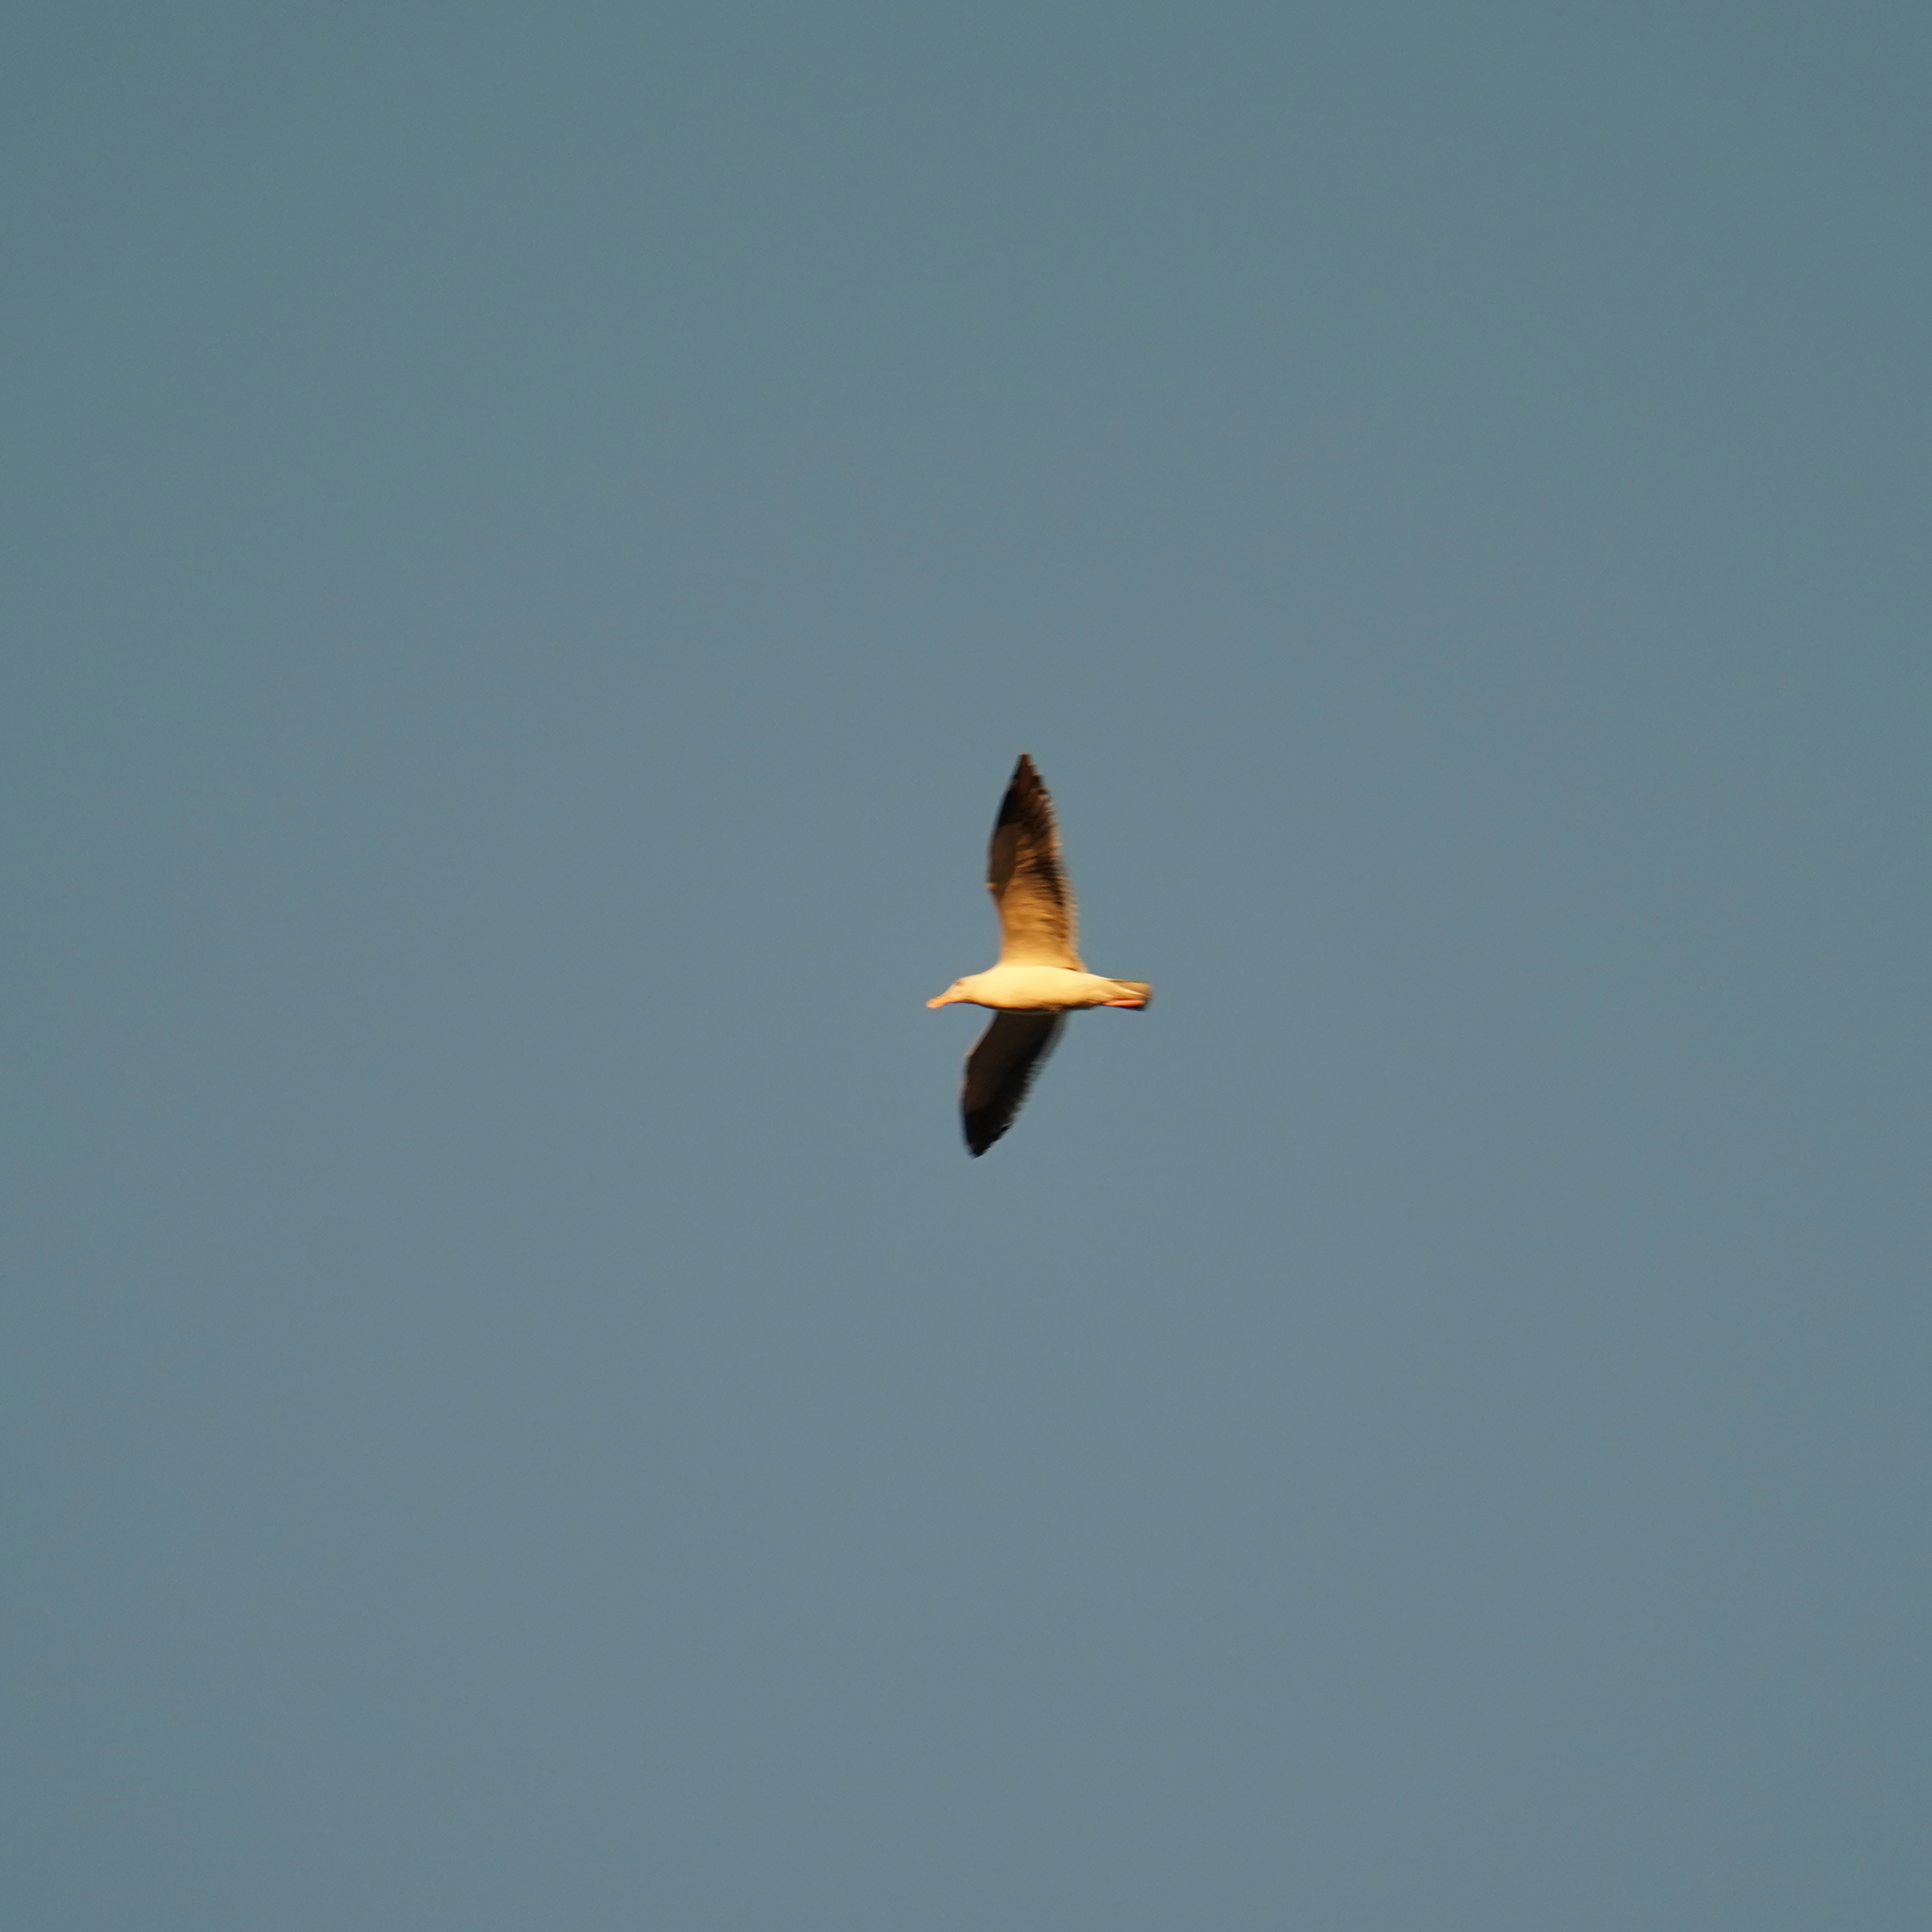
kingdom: Animalia
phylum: Chordata
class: Aves
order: Charadriiformes
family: Laridae
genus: Larus
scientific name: Larus occidentalis
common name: Western gull
